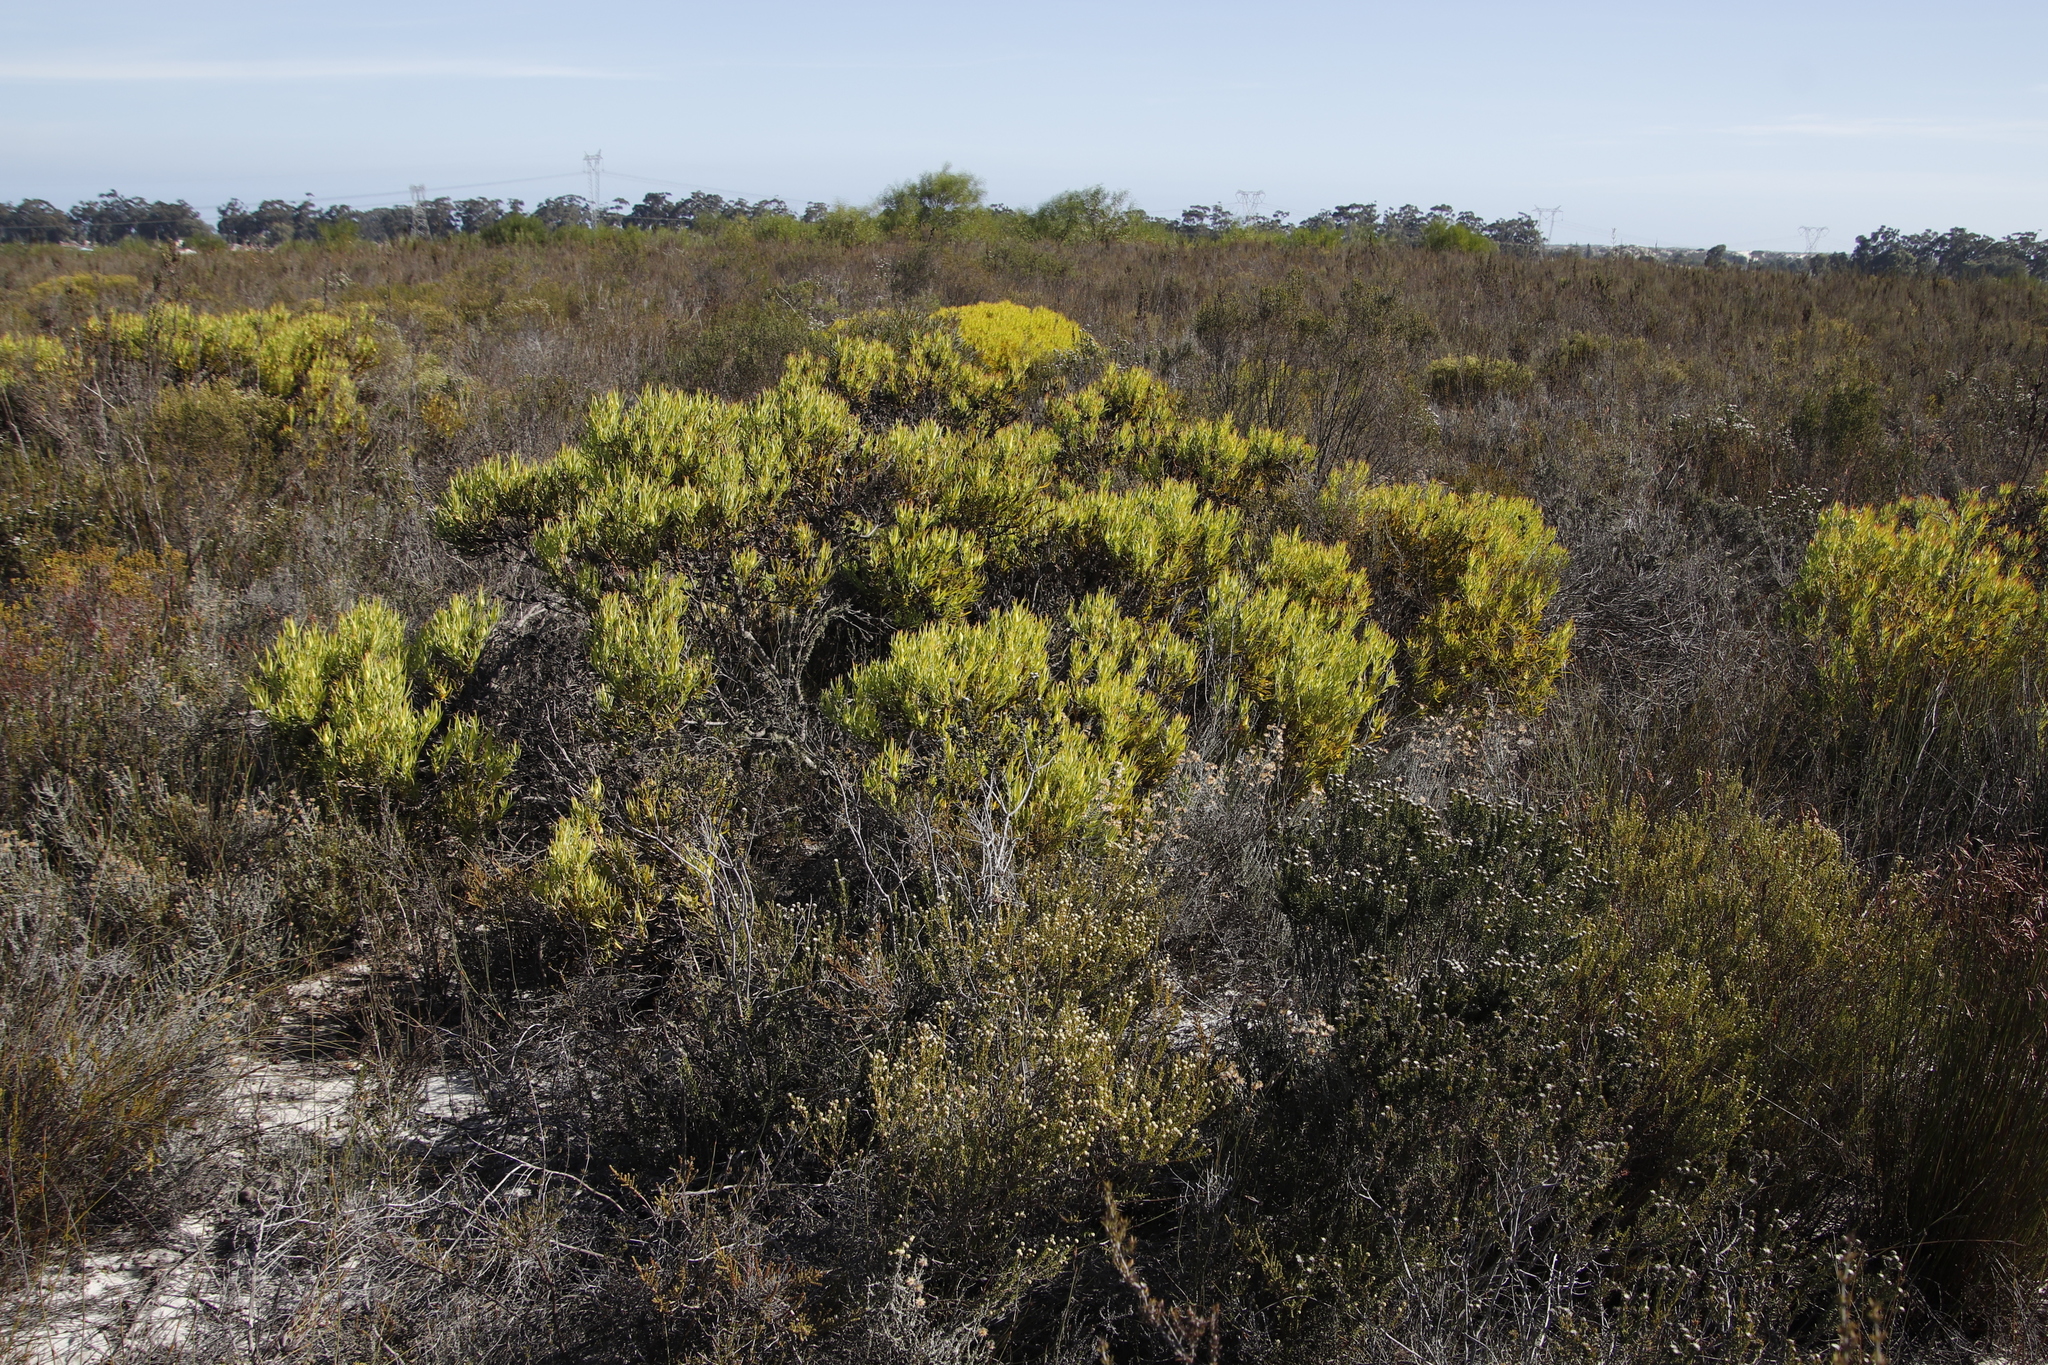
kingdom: Plantae
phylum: Tracheophyta
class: Magnoliopsida
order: Proteales
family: Proteaceae
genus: Leucadendron
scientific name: Leucadendron salignum
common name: Common sunshine conebush
